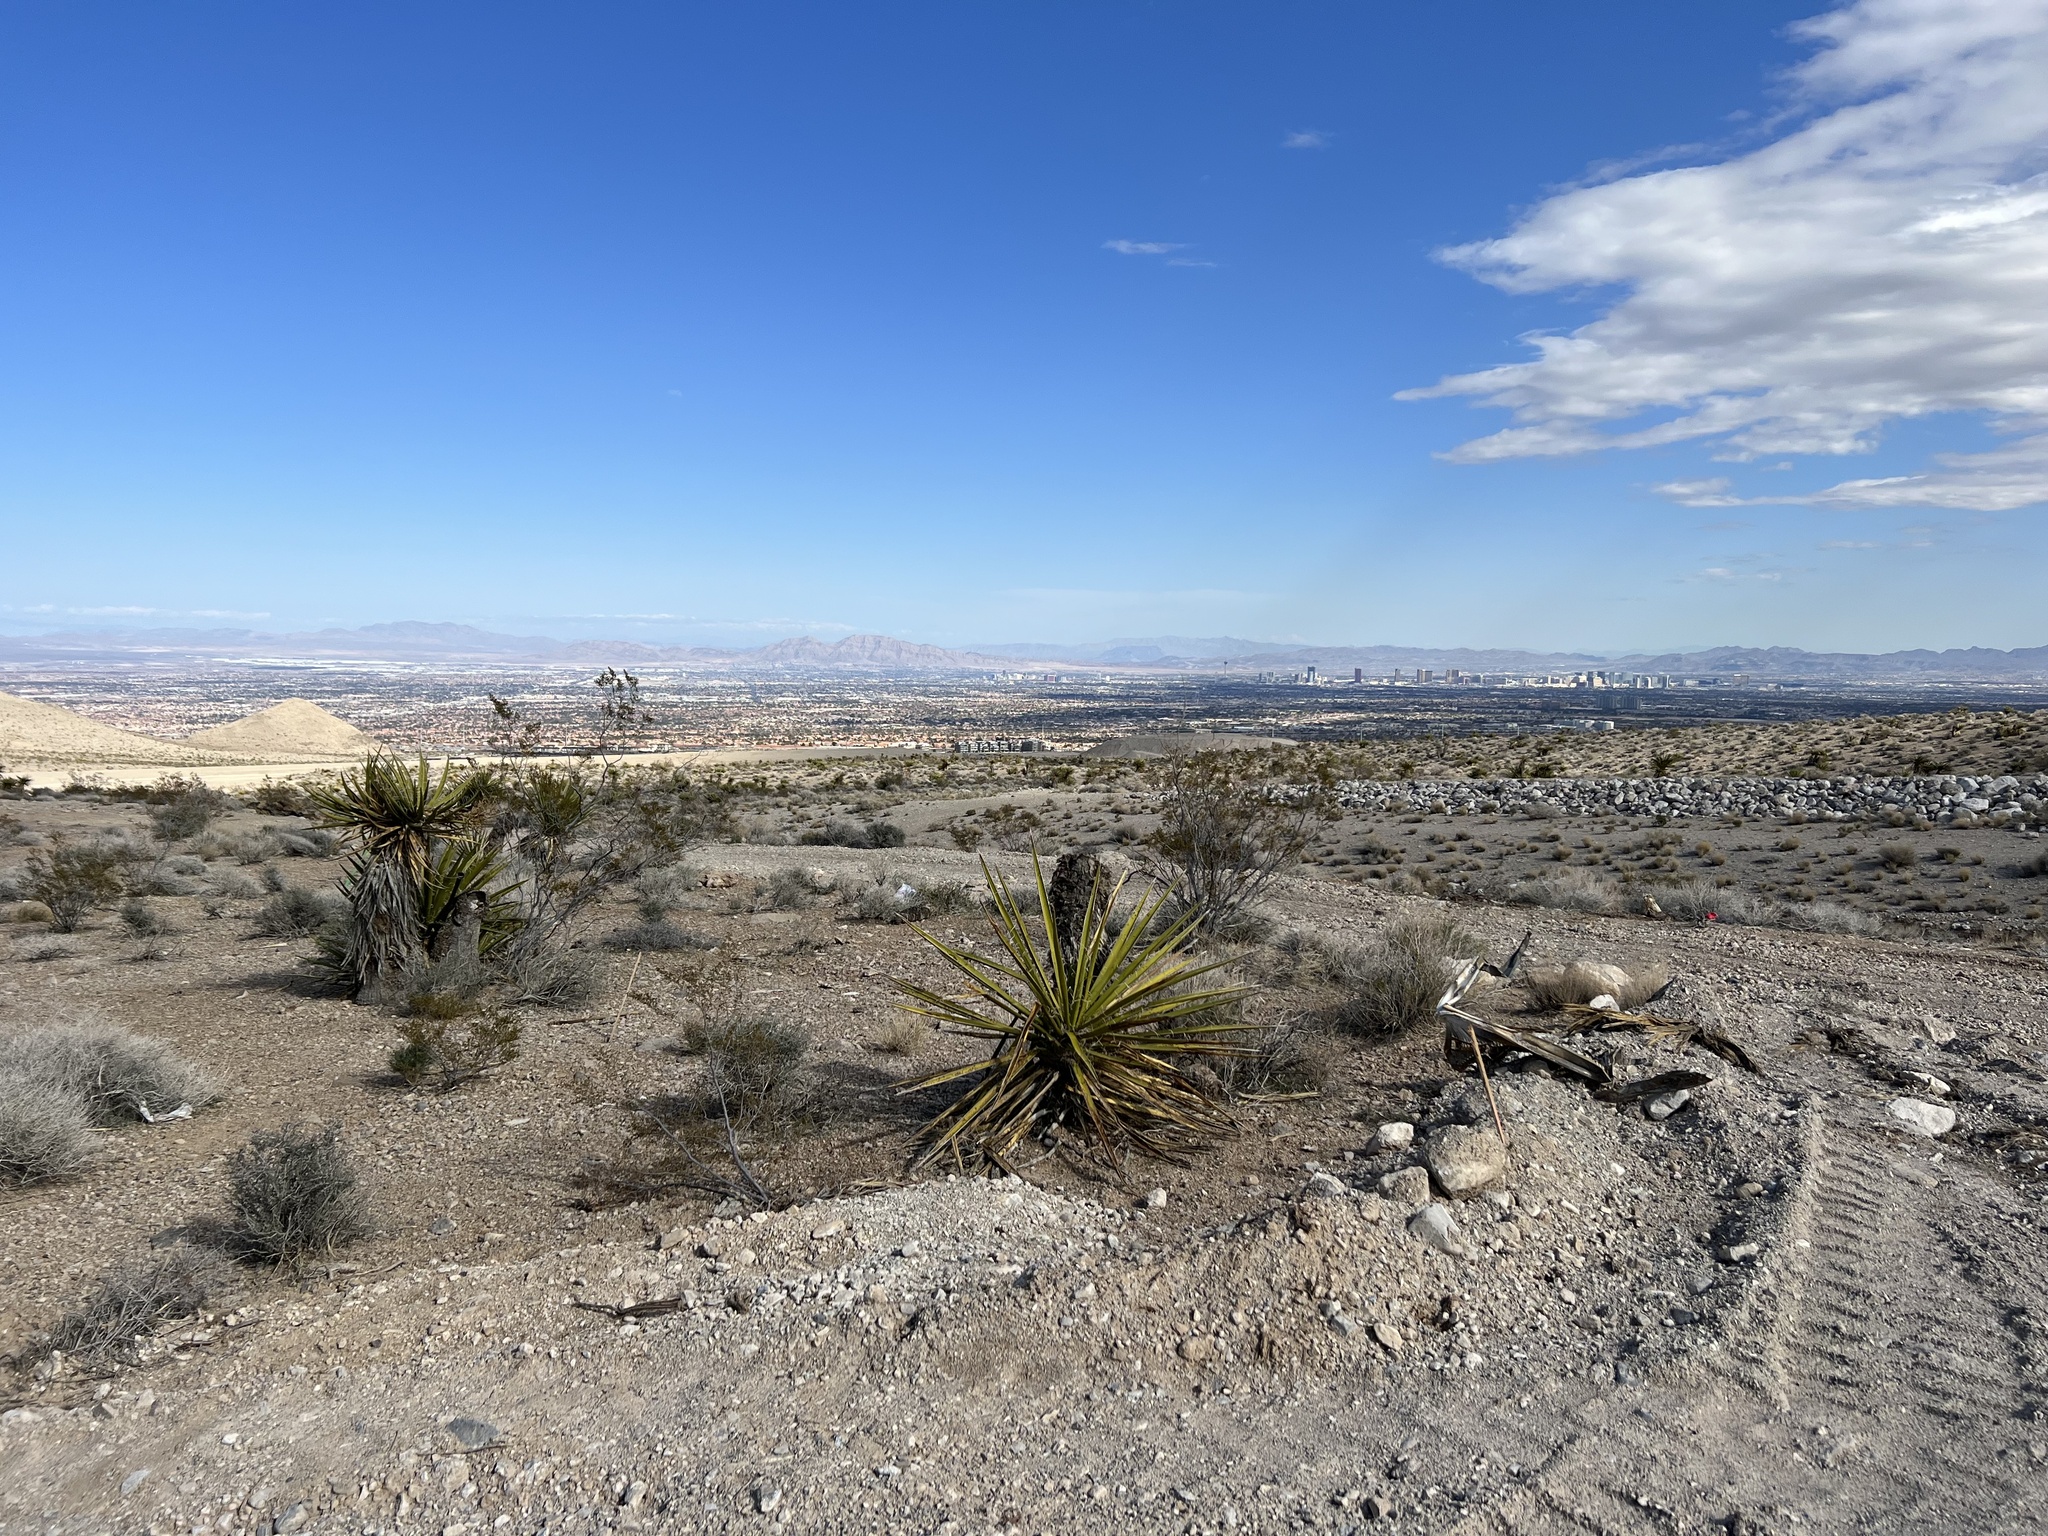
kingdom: Plantae
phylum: Tracheophyta
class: Liliopsida
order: Asparagales
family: Asparagaceae
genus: Yucca
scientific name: Yucca schidigera
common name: Mojave yucca
